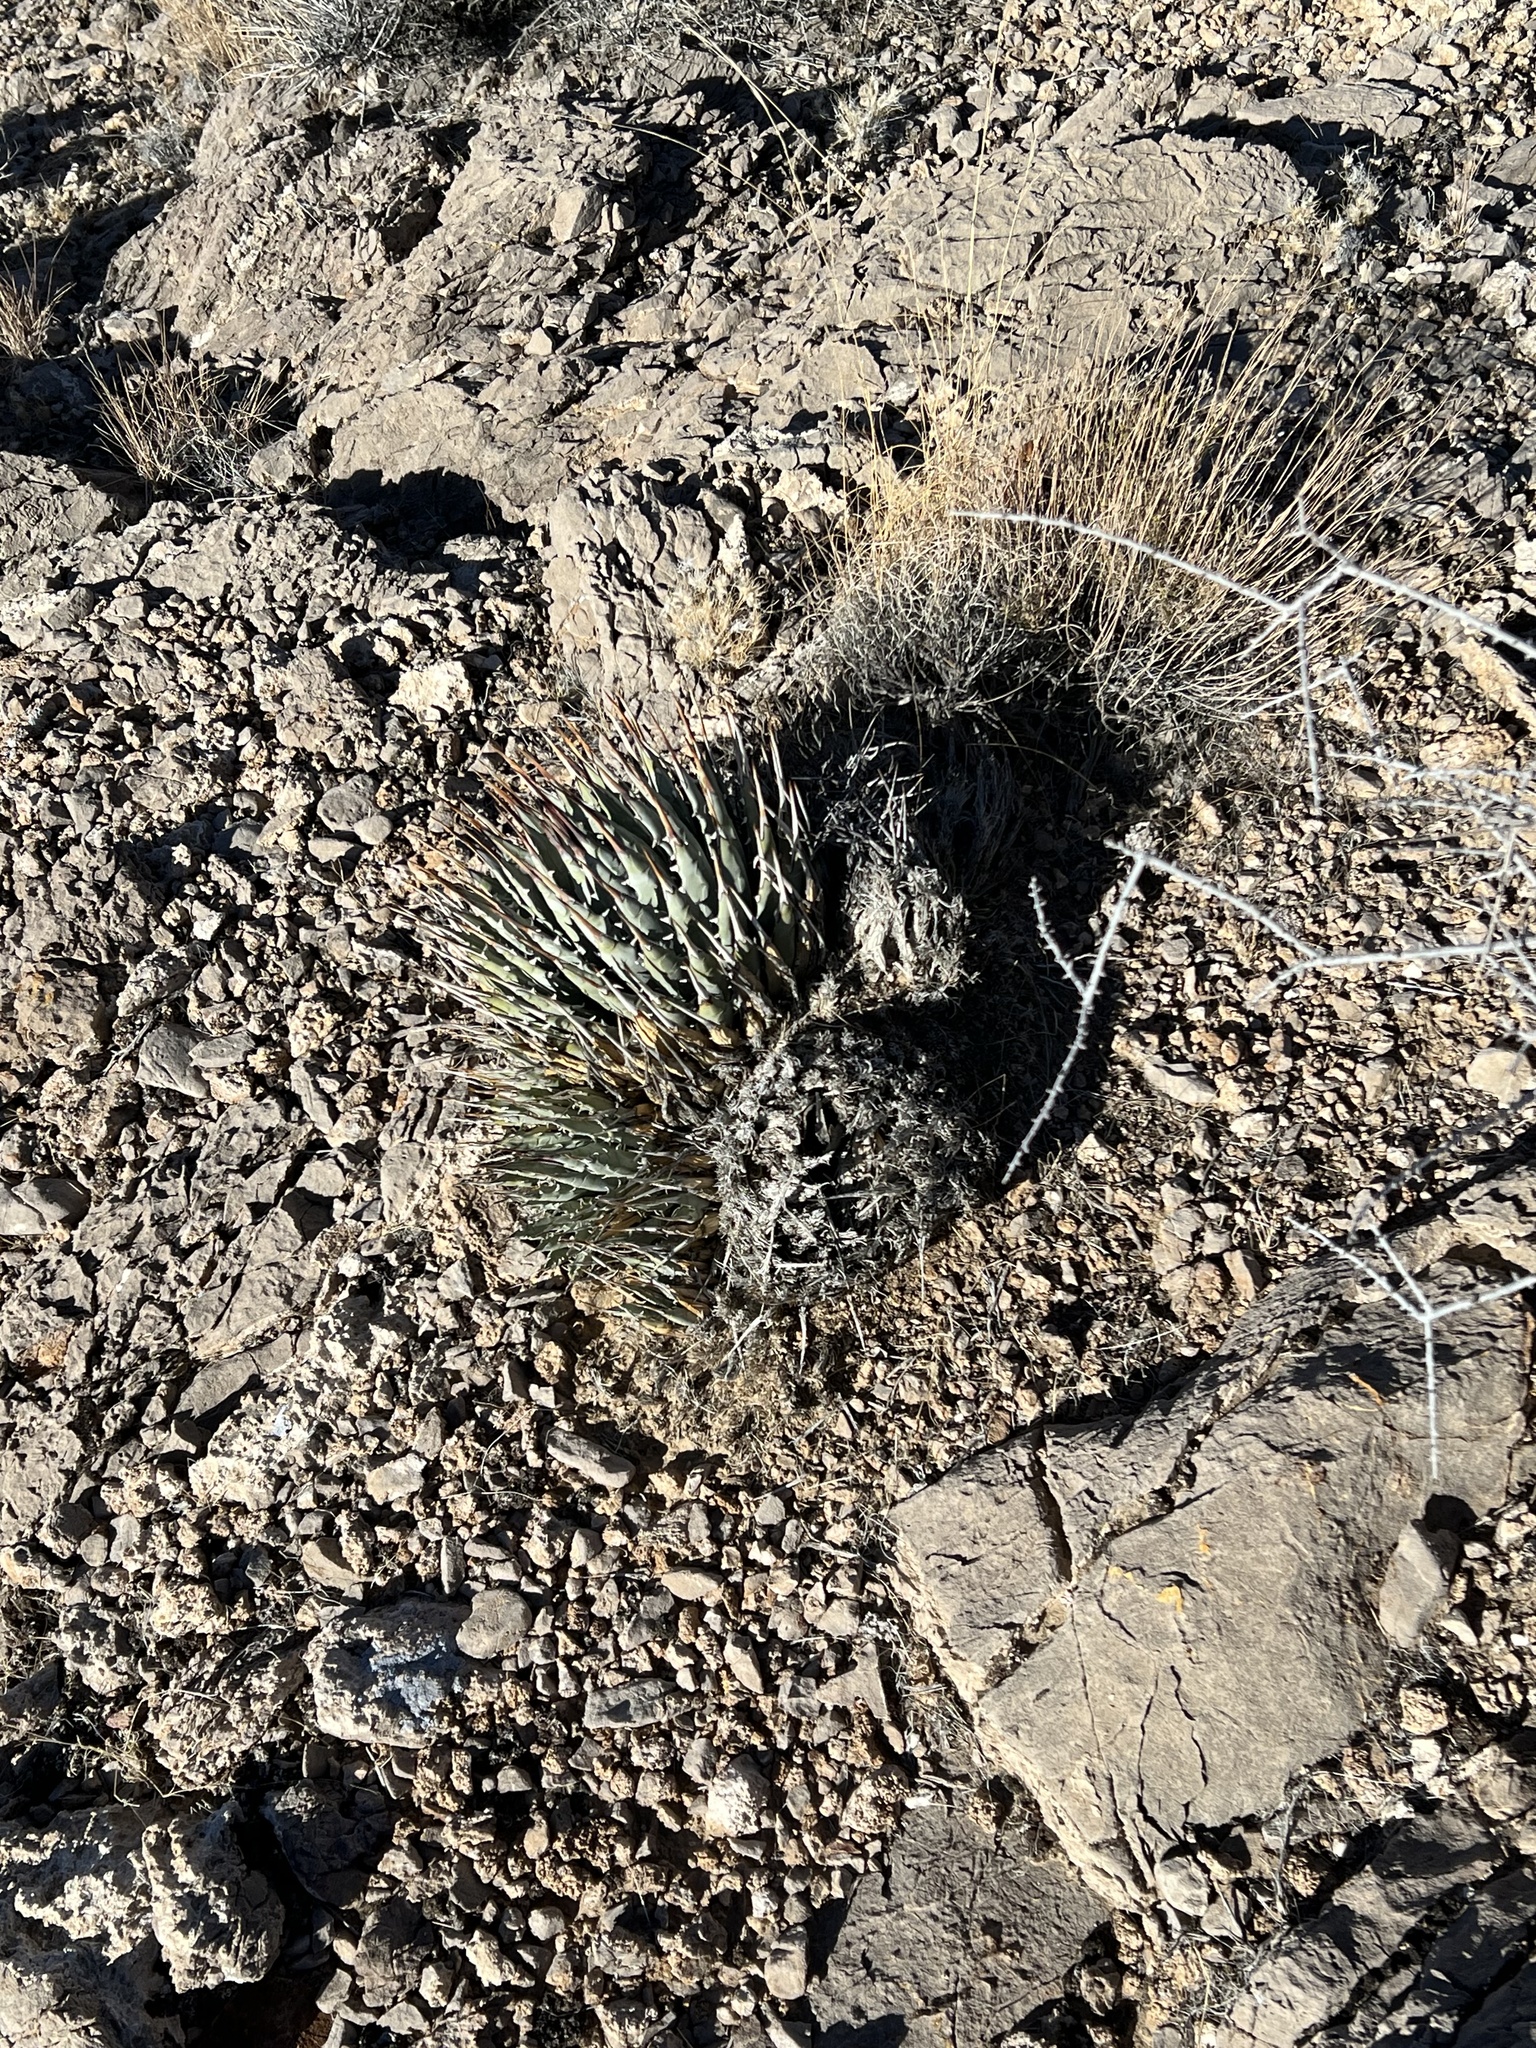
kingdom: Plantae
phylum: Tracheophyta
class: Liliopsida
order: Asparagales
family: Asparagaceae
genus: Agave
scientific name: Agave utahensis
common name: Utah agave
